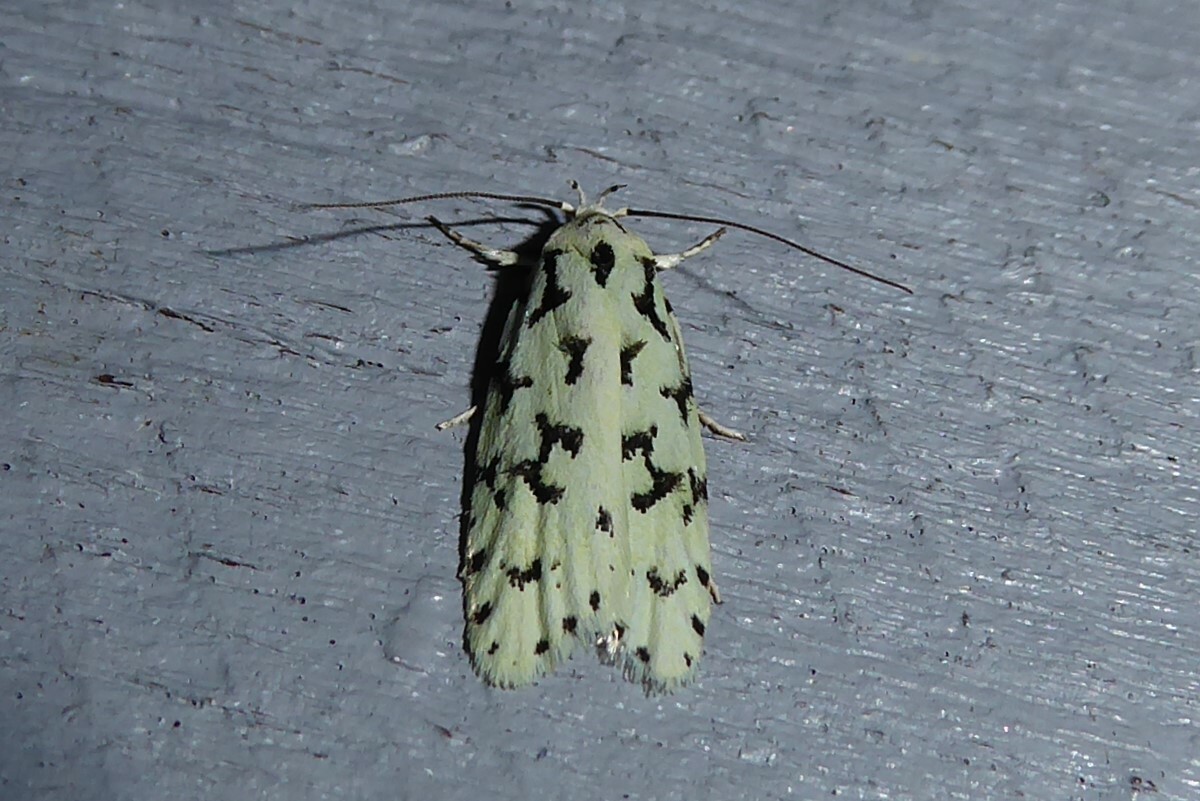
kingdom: Animalia
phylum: Arthropoda
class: Insecta
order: Lepidoptera
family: Oecophoridae
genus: Izatha
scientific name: Izatha huttoni
